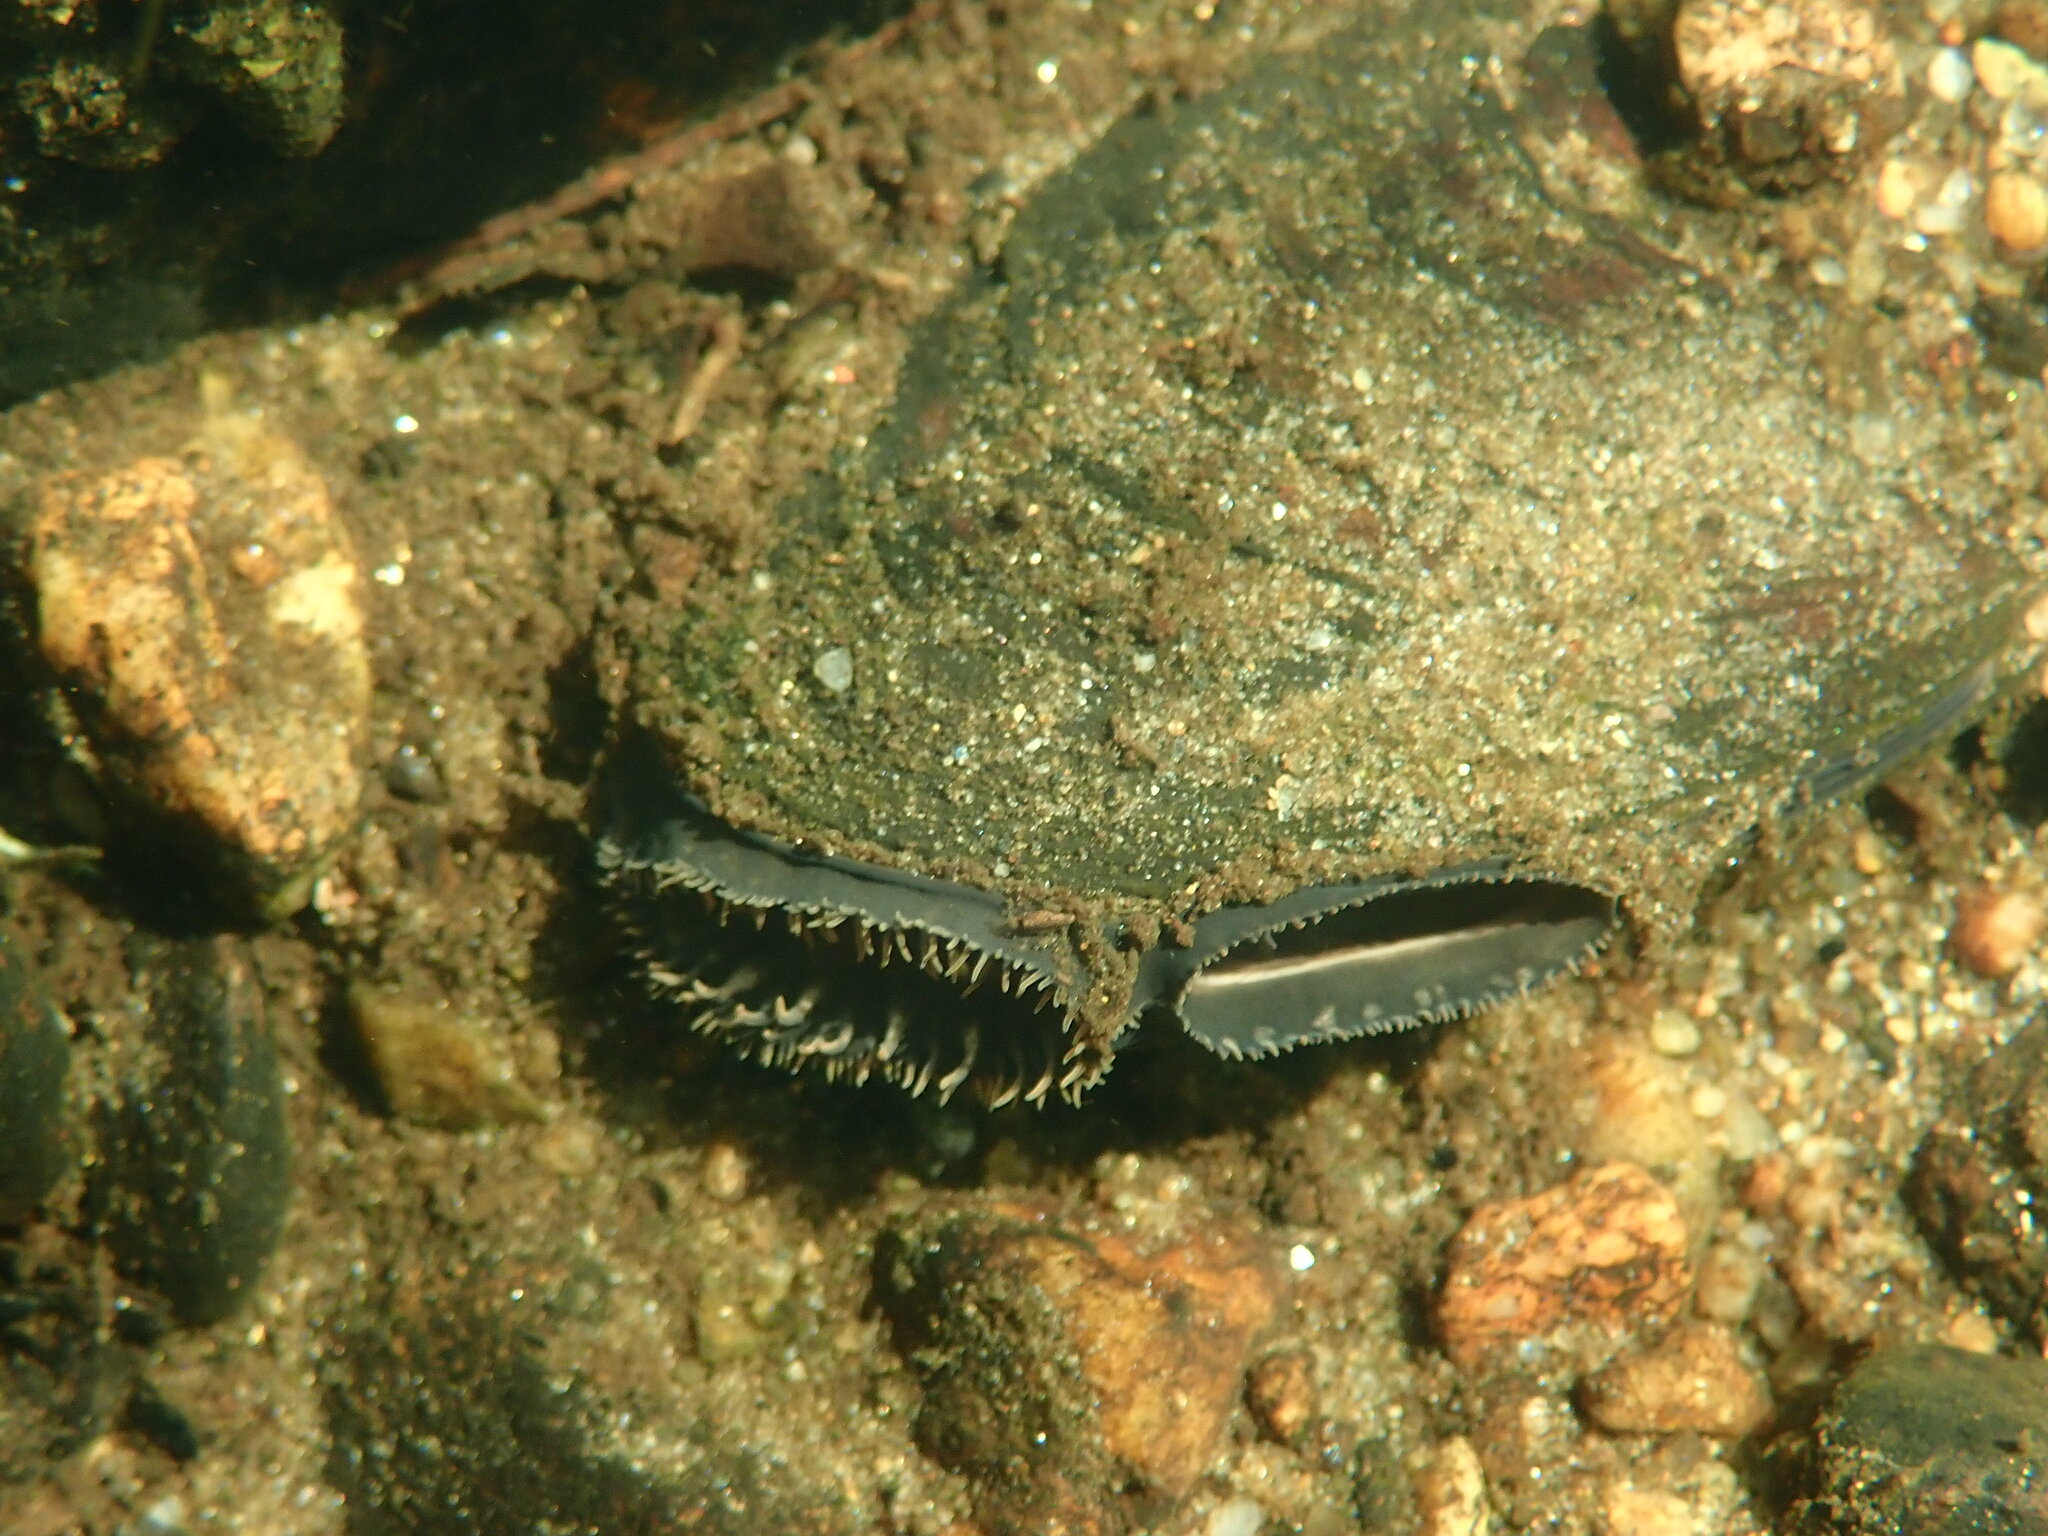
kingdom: Animalia
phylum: Mollusca
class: Bivalvia
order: Unionida
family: Unionidae
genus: Elliptio
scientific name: Elliptio complanata
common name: Eastern elliptio
